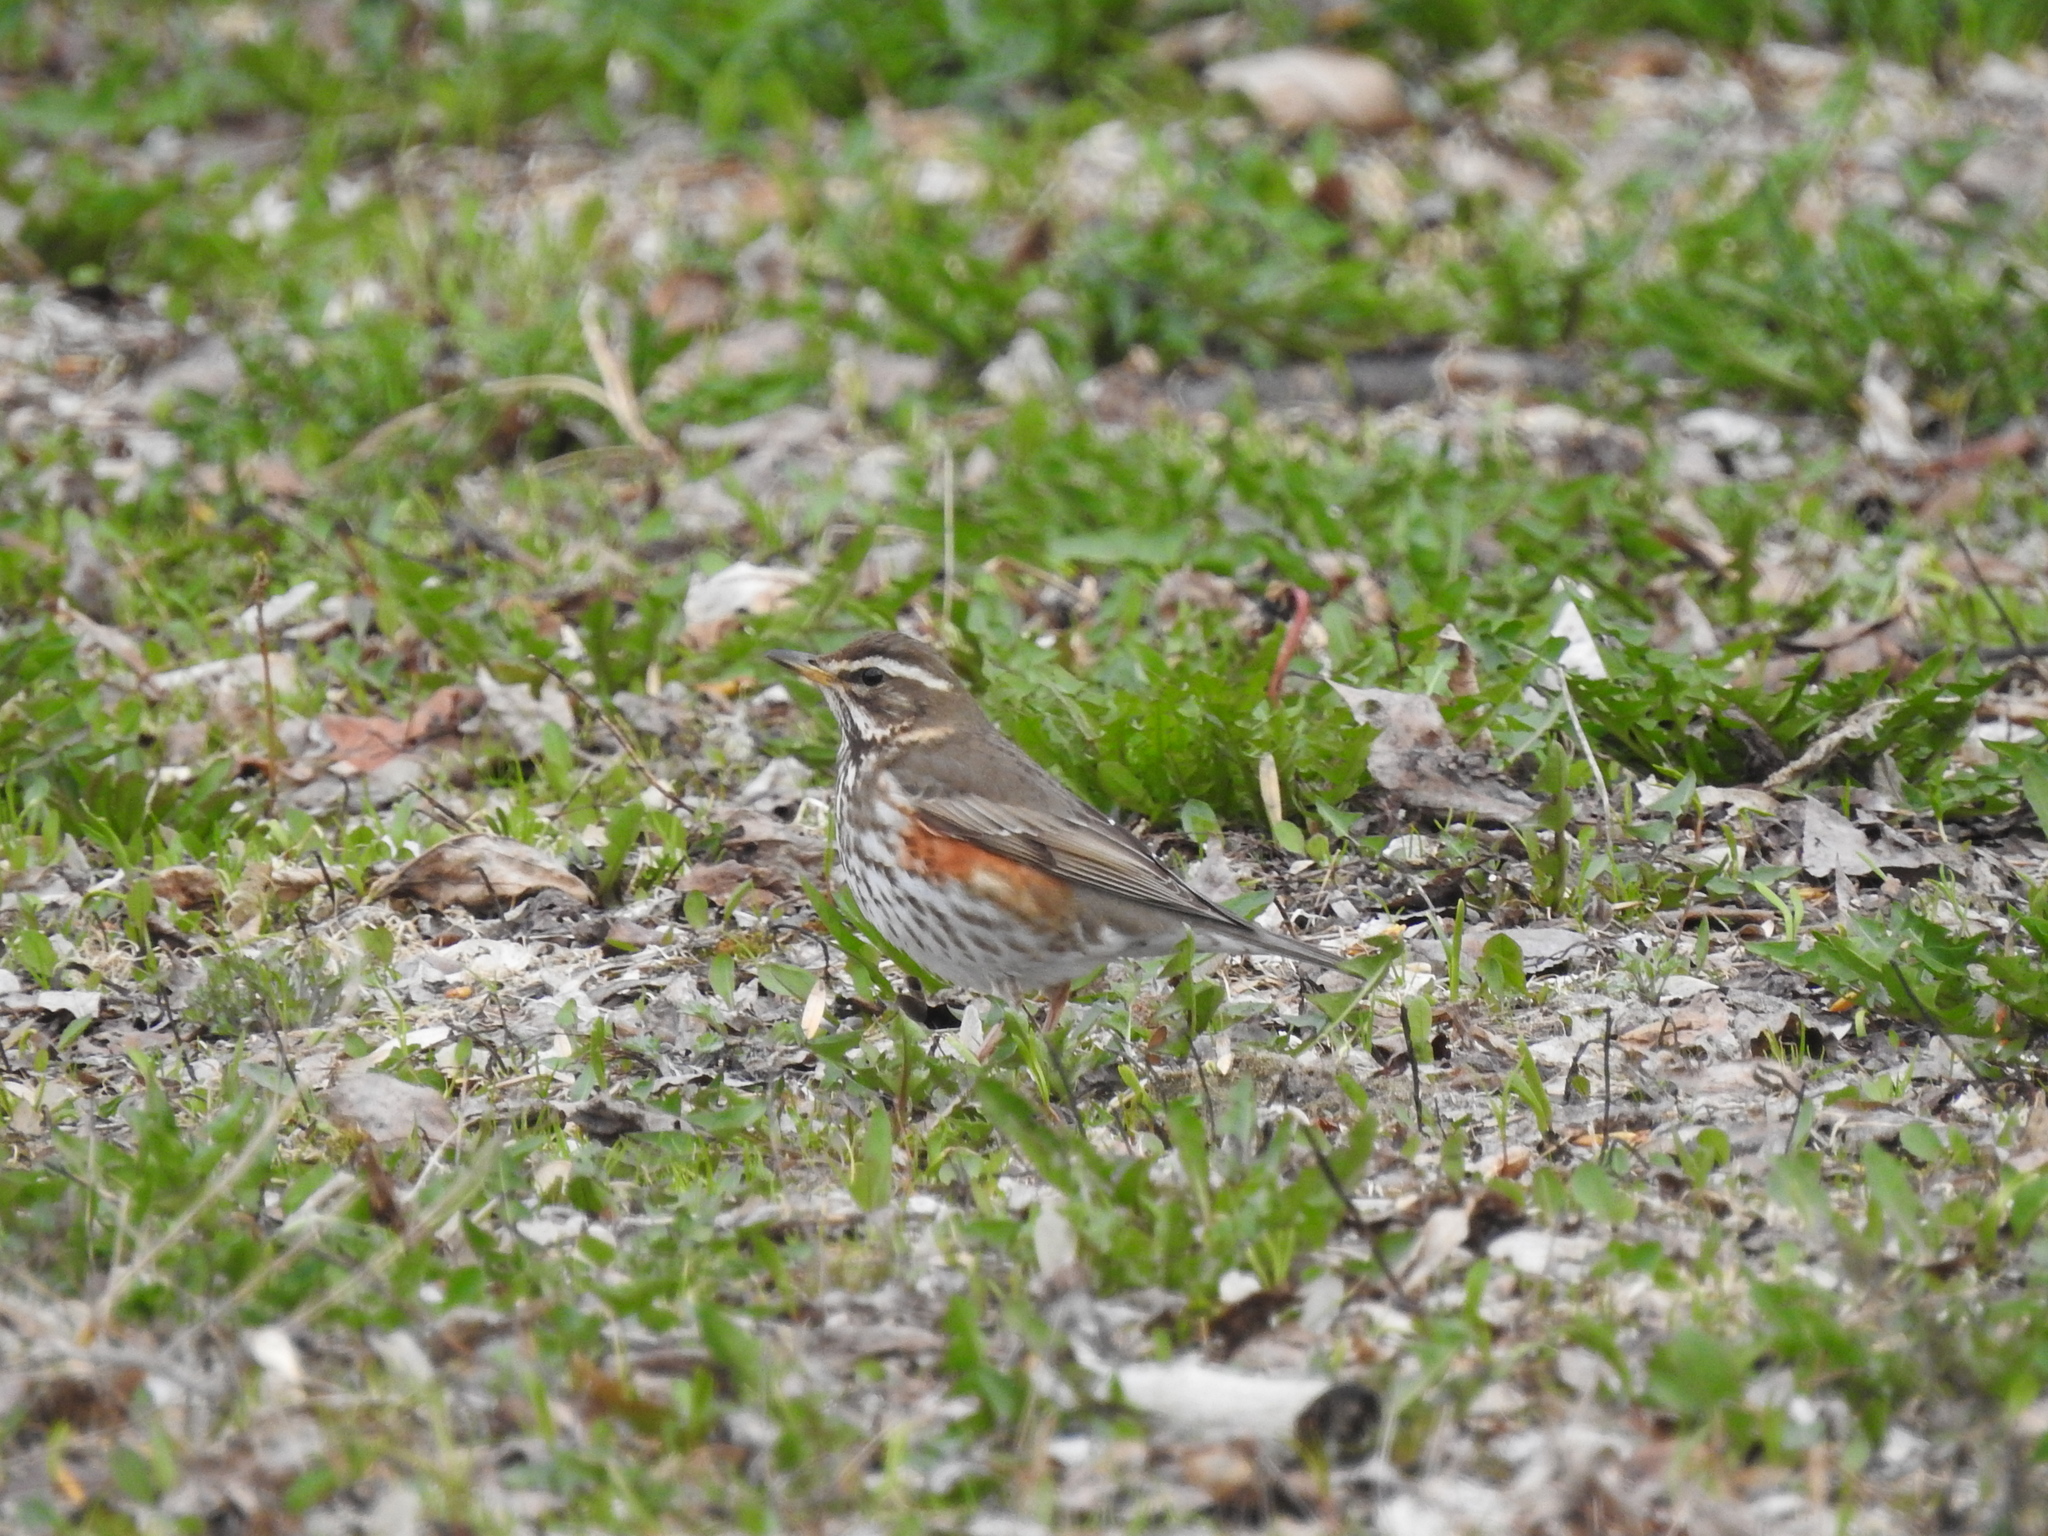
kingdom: Animalia
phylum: Chordata
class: Aves
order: Passeriformes
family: Turdidae
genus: Turdus
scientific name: Turdus iliacus
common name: Redwing
